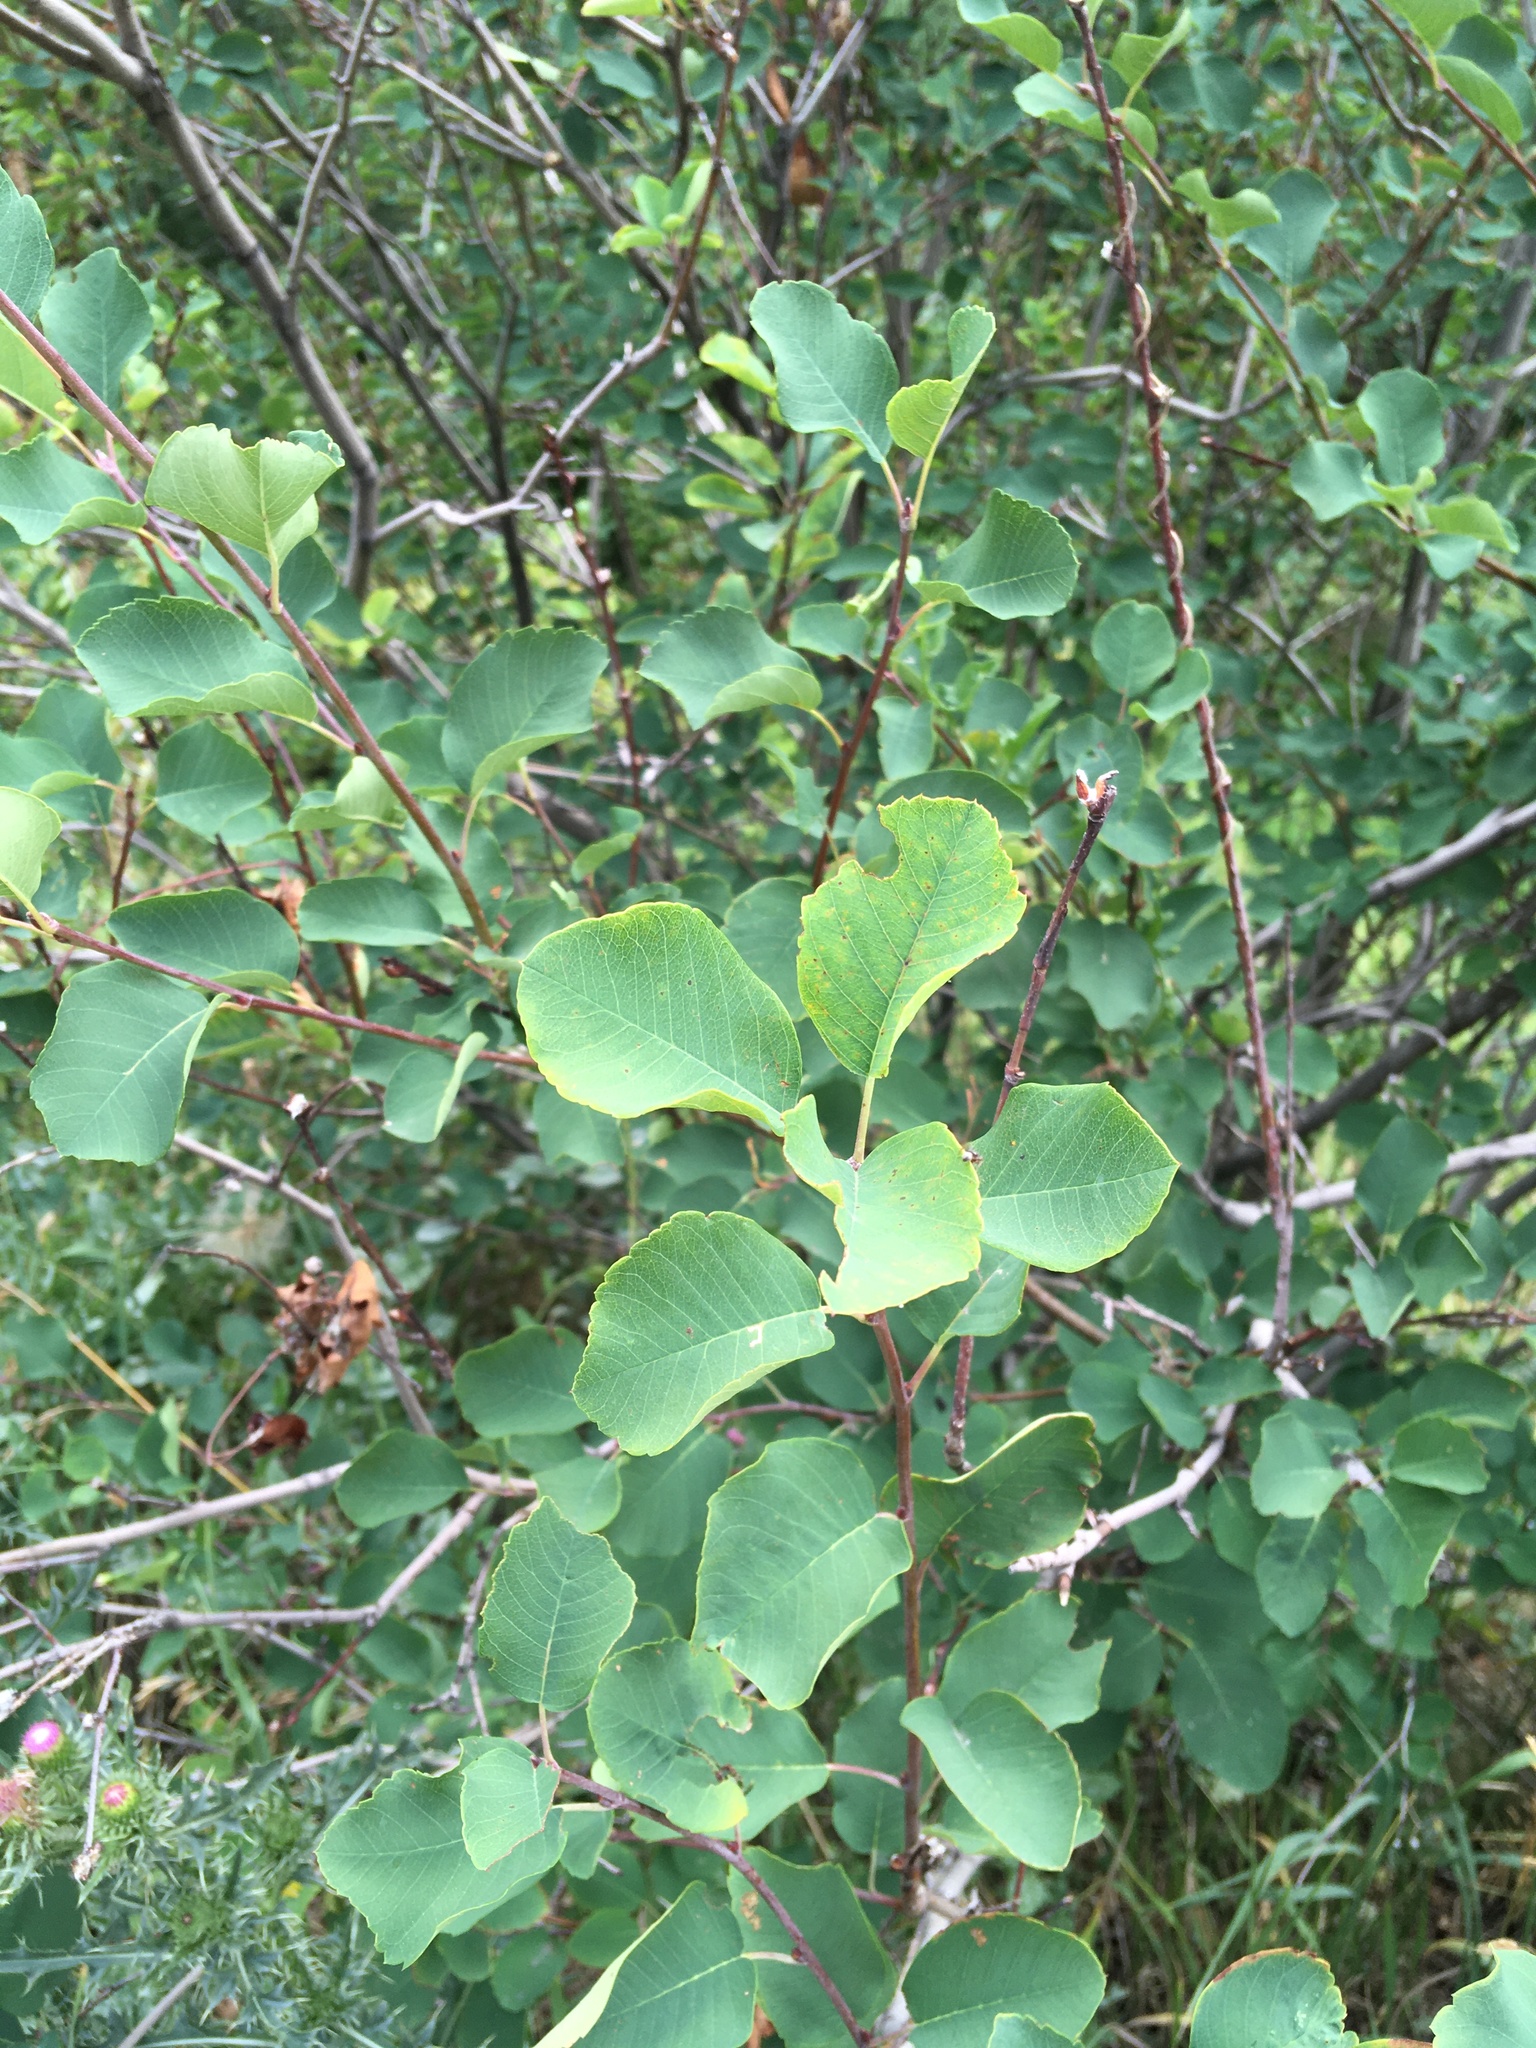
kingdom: Plantae
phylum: Tracheophyta
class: Magnoliopsida
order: Rosales
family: Rosaceae
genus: Amelanchier
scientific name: Amelanchier alnifolia
